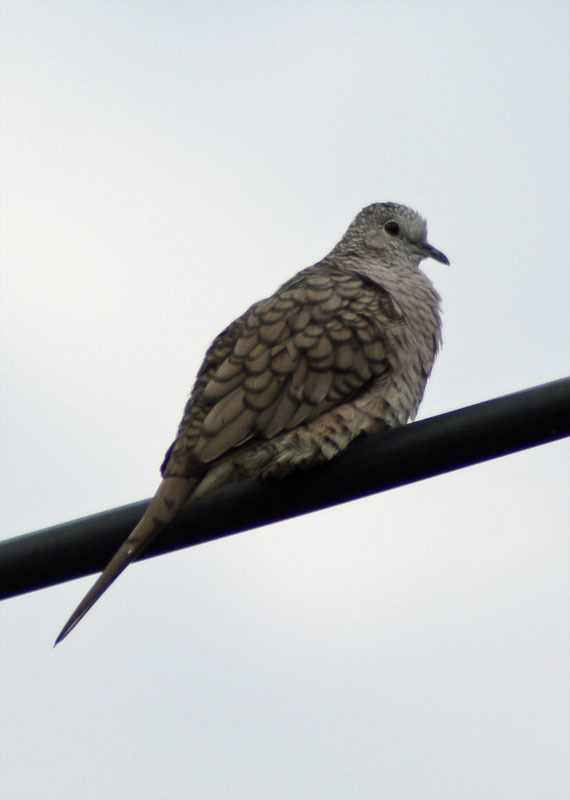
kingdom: Animalia
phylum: Chordata
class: Aves
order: Columbiformes
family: Columbidae
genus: Columbina
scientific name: Columbina inca
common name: Inca dove
